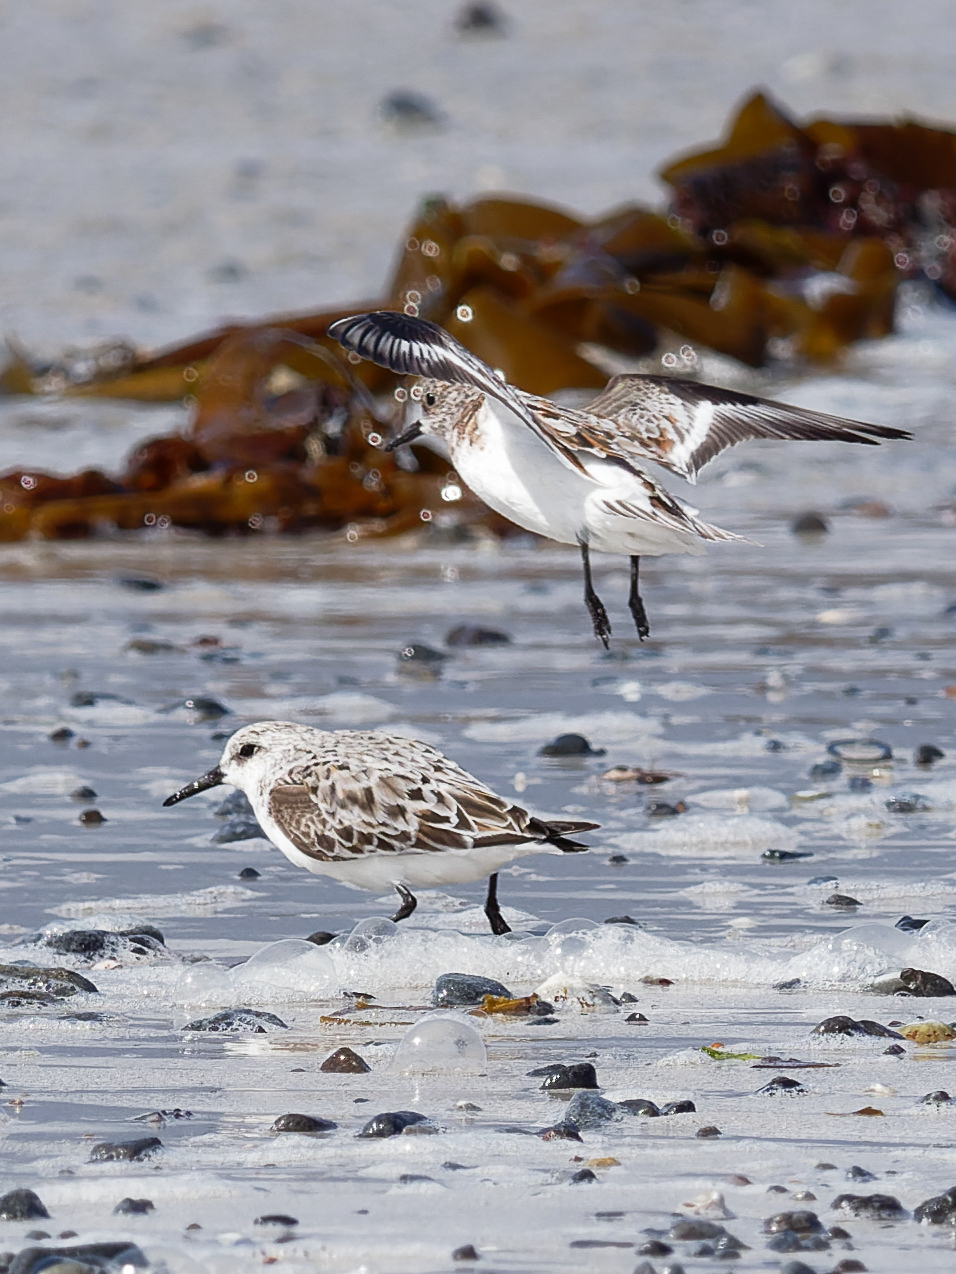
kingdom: Animalia
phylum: Chordata
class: Aves
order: Charadriiformes
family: Scolopacidae
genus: Calidris
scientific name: Calidris alba
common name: Sanderling
